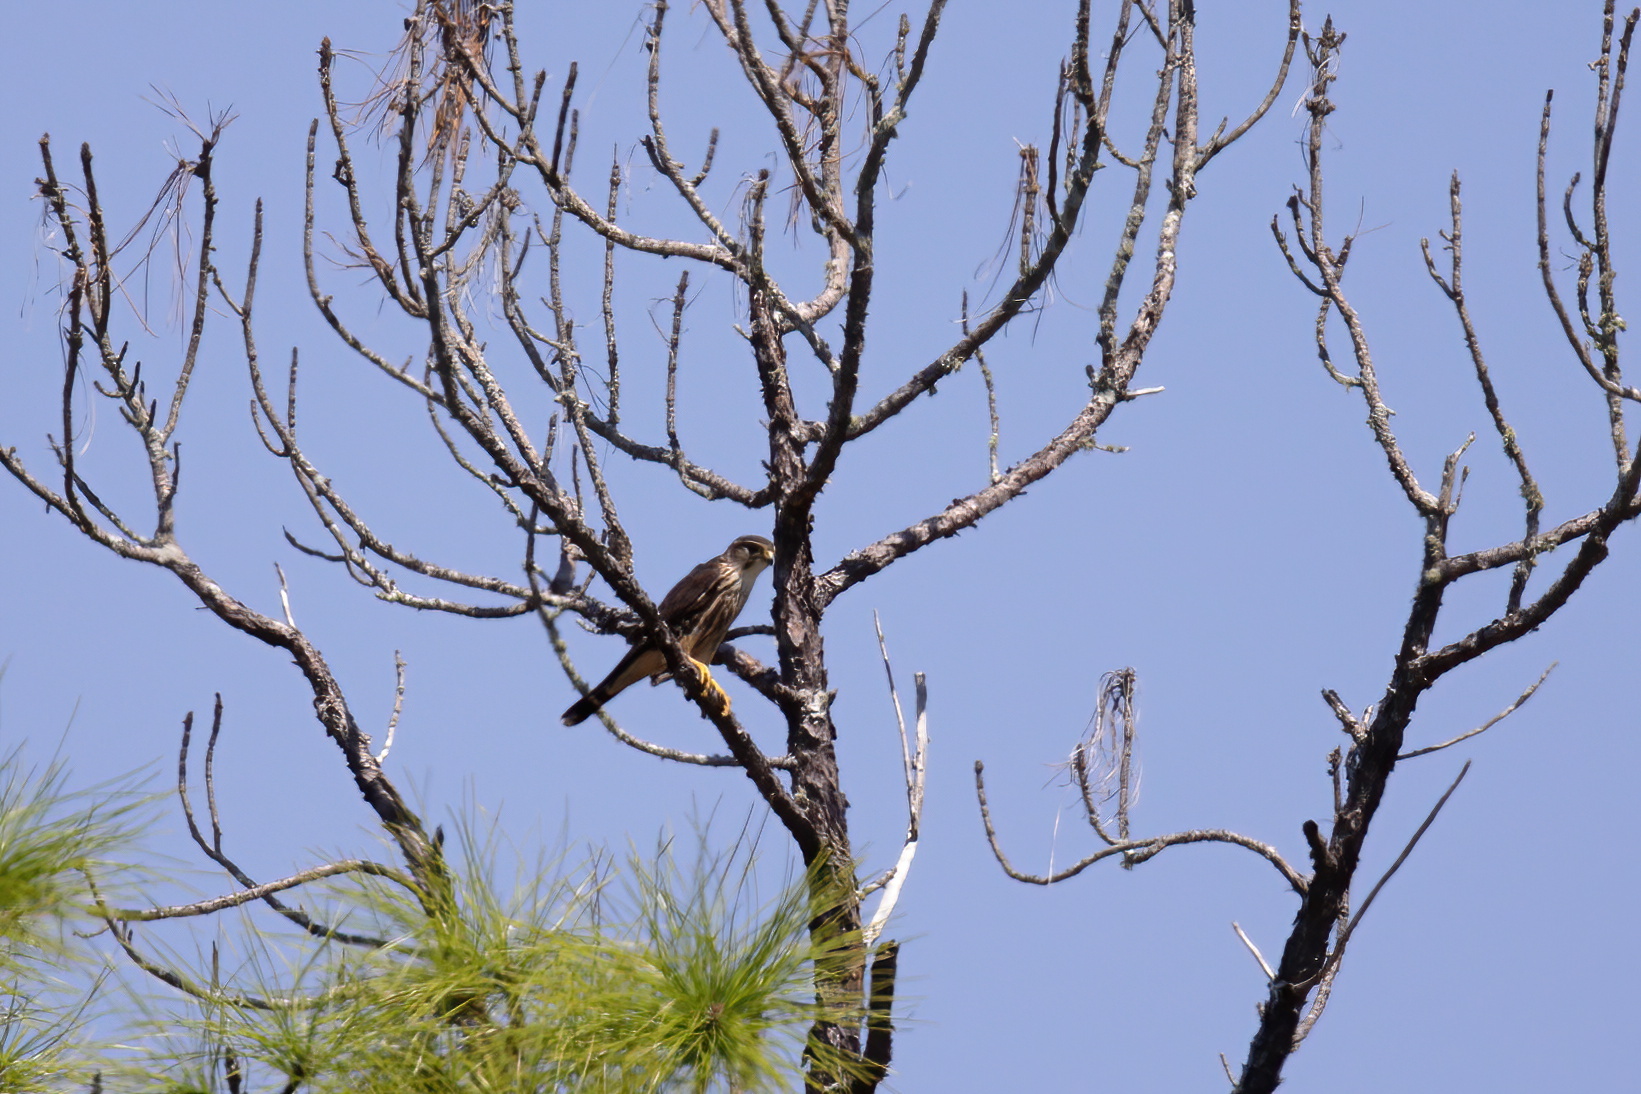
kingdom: Animalia
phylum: Chordata
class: Aves
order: Falconiformes
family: Falconidae
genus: Falco
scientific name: Falco columbarius
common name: Merlin
